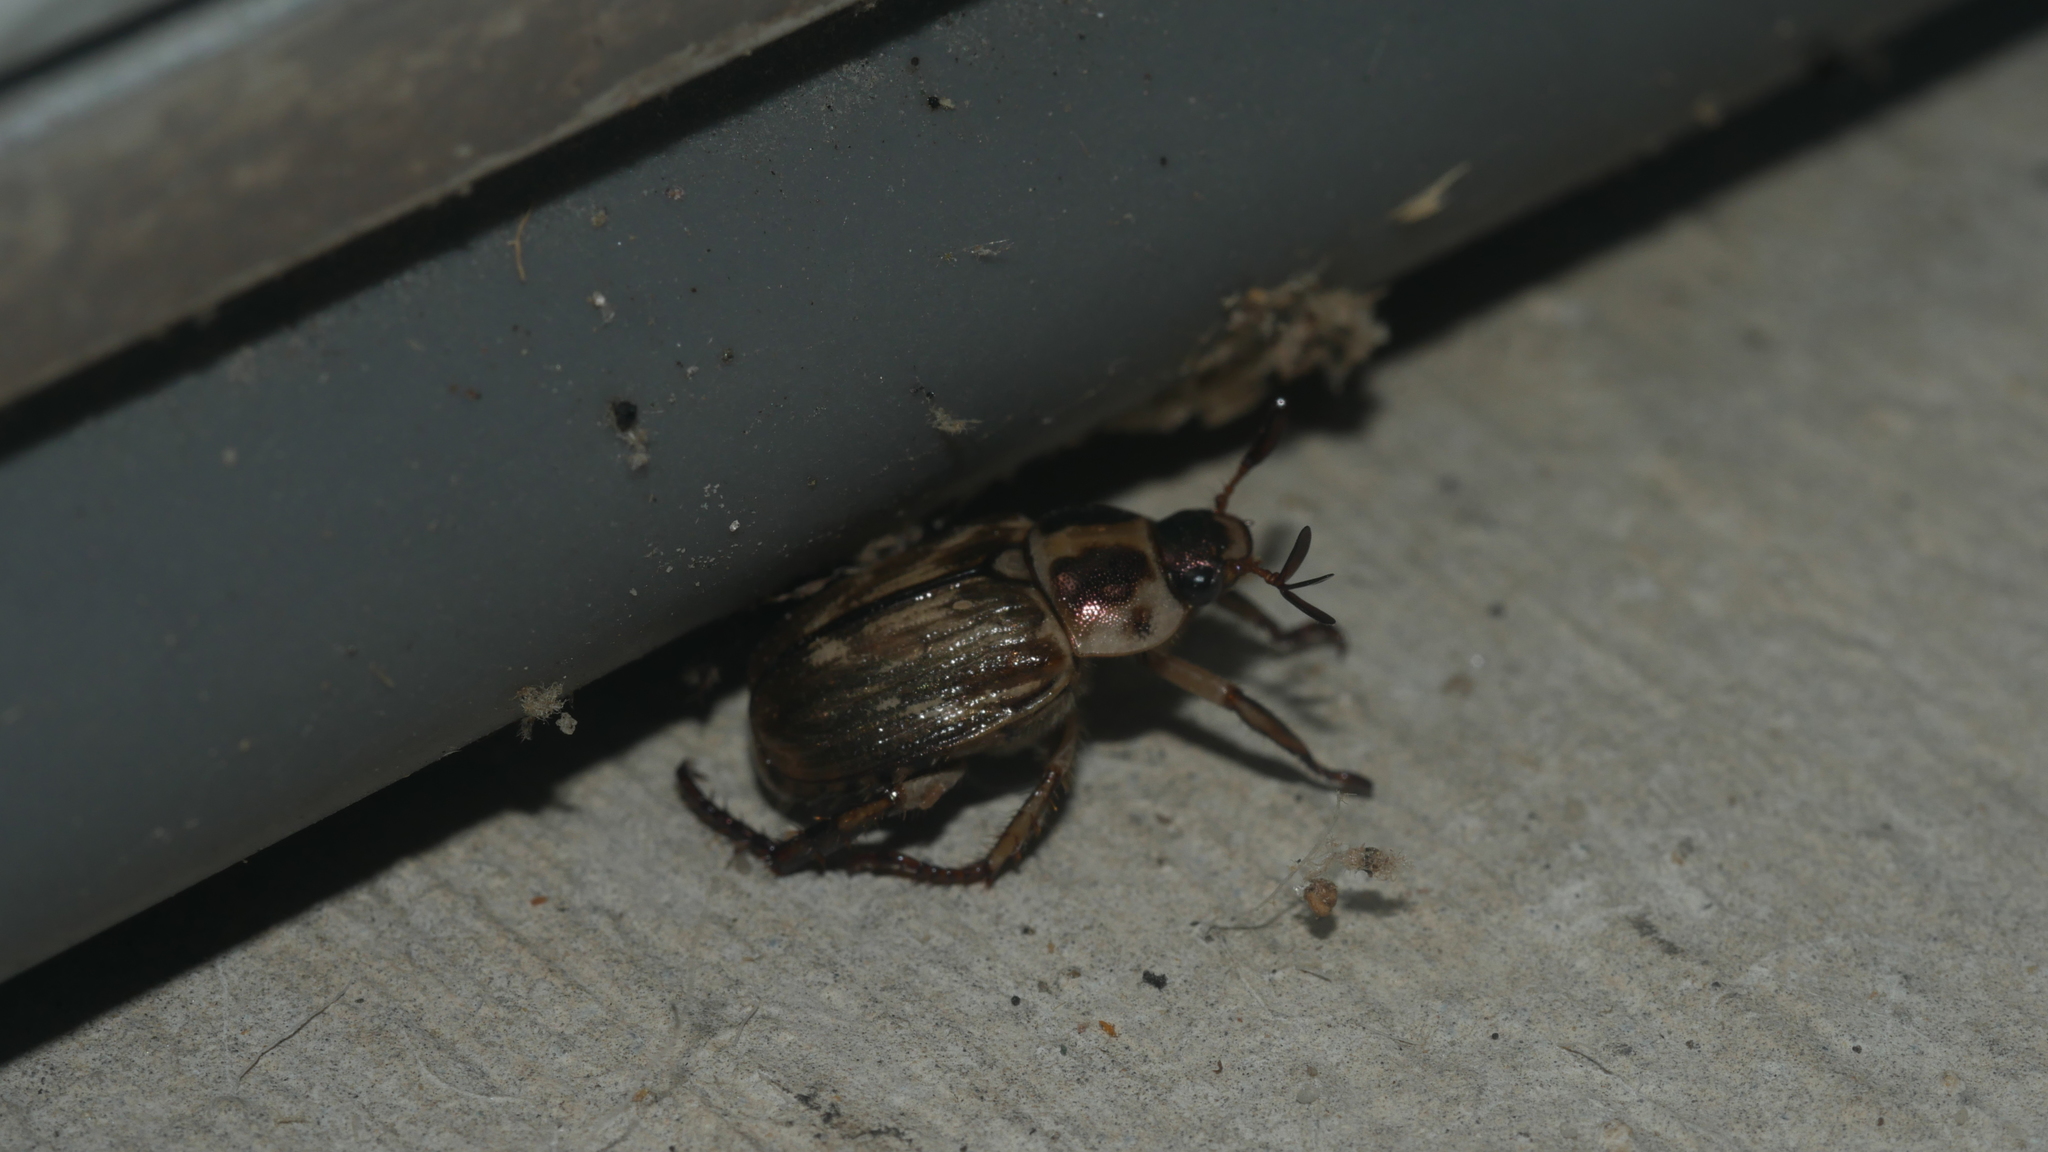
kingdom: Animalia
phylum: Arthropoda
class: Insecta
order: Coleoptera
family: Scarabaeidae
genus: Exomala
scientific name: Exomala orientalis
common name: Oriental beetle
